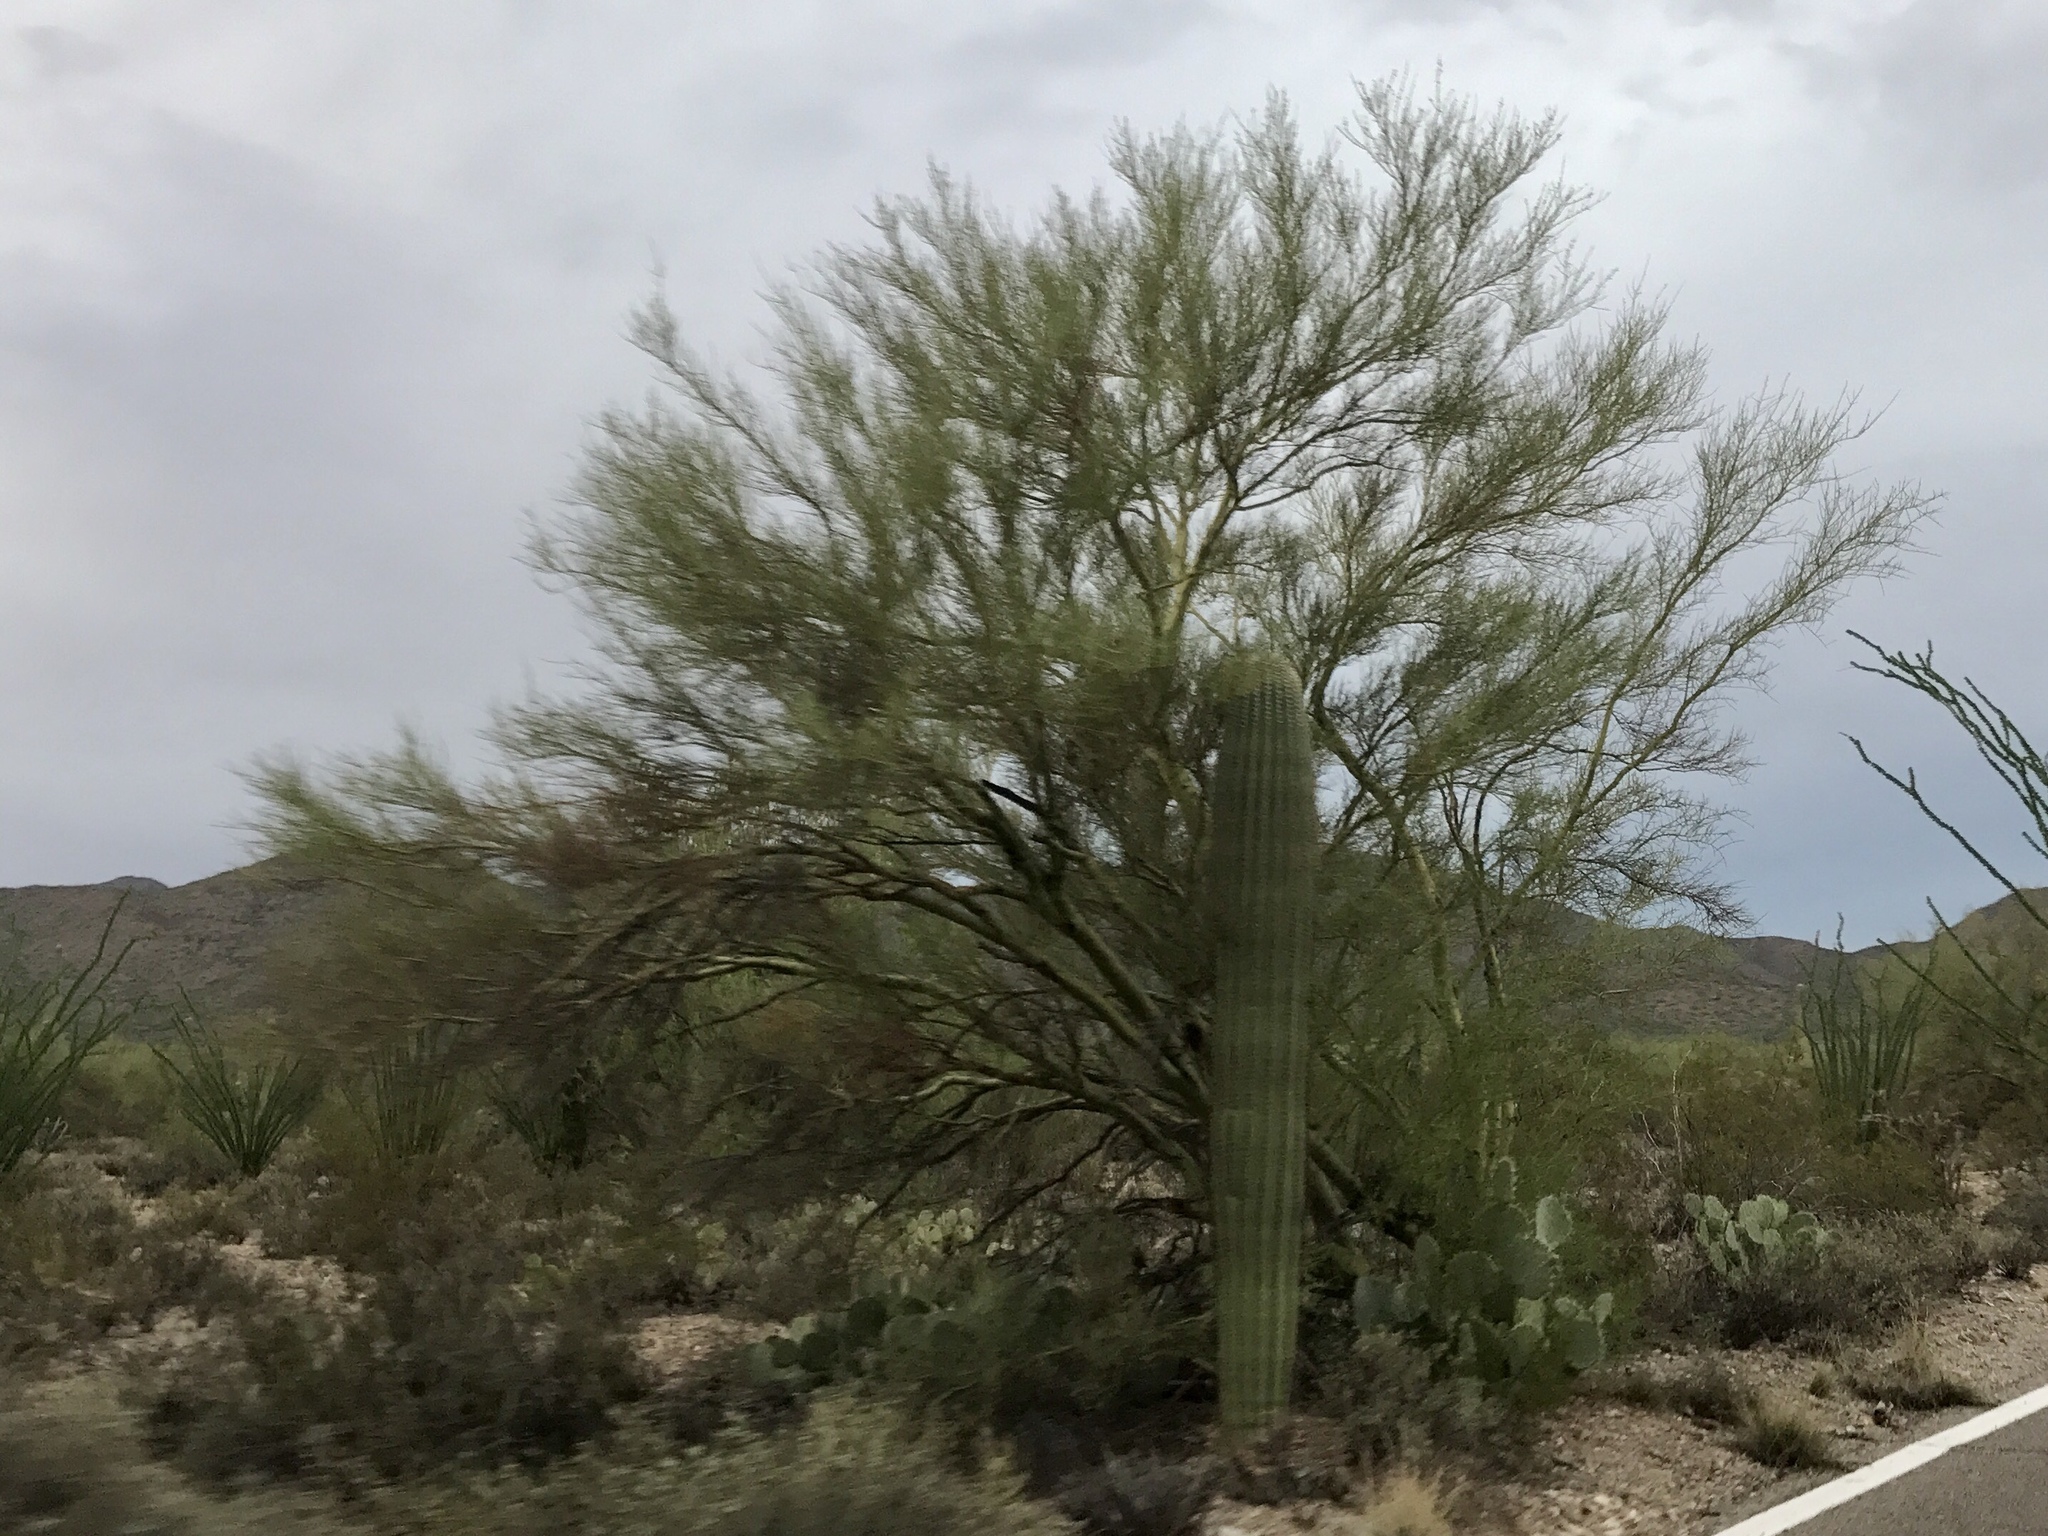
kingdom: Plantae
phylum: Tracheophyta
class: Magnoliopsida
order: Caryophyllales
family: Cactaceae
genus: Carnegiea
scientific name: Carnegiea gigantea
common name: Saguaro
